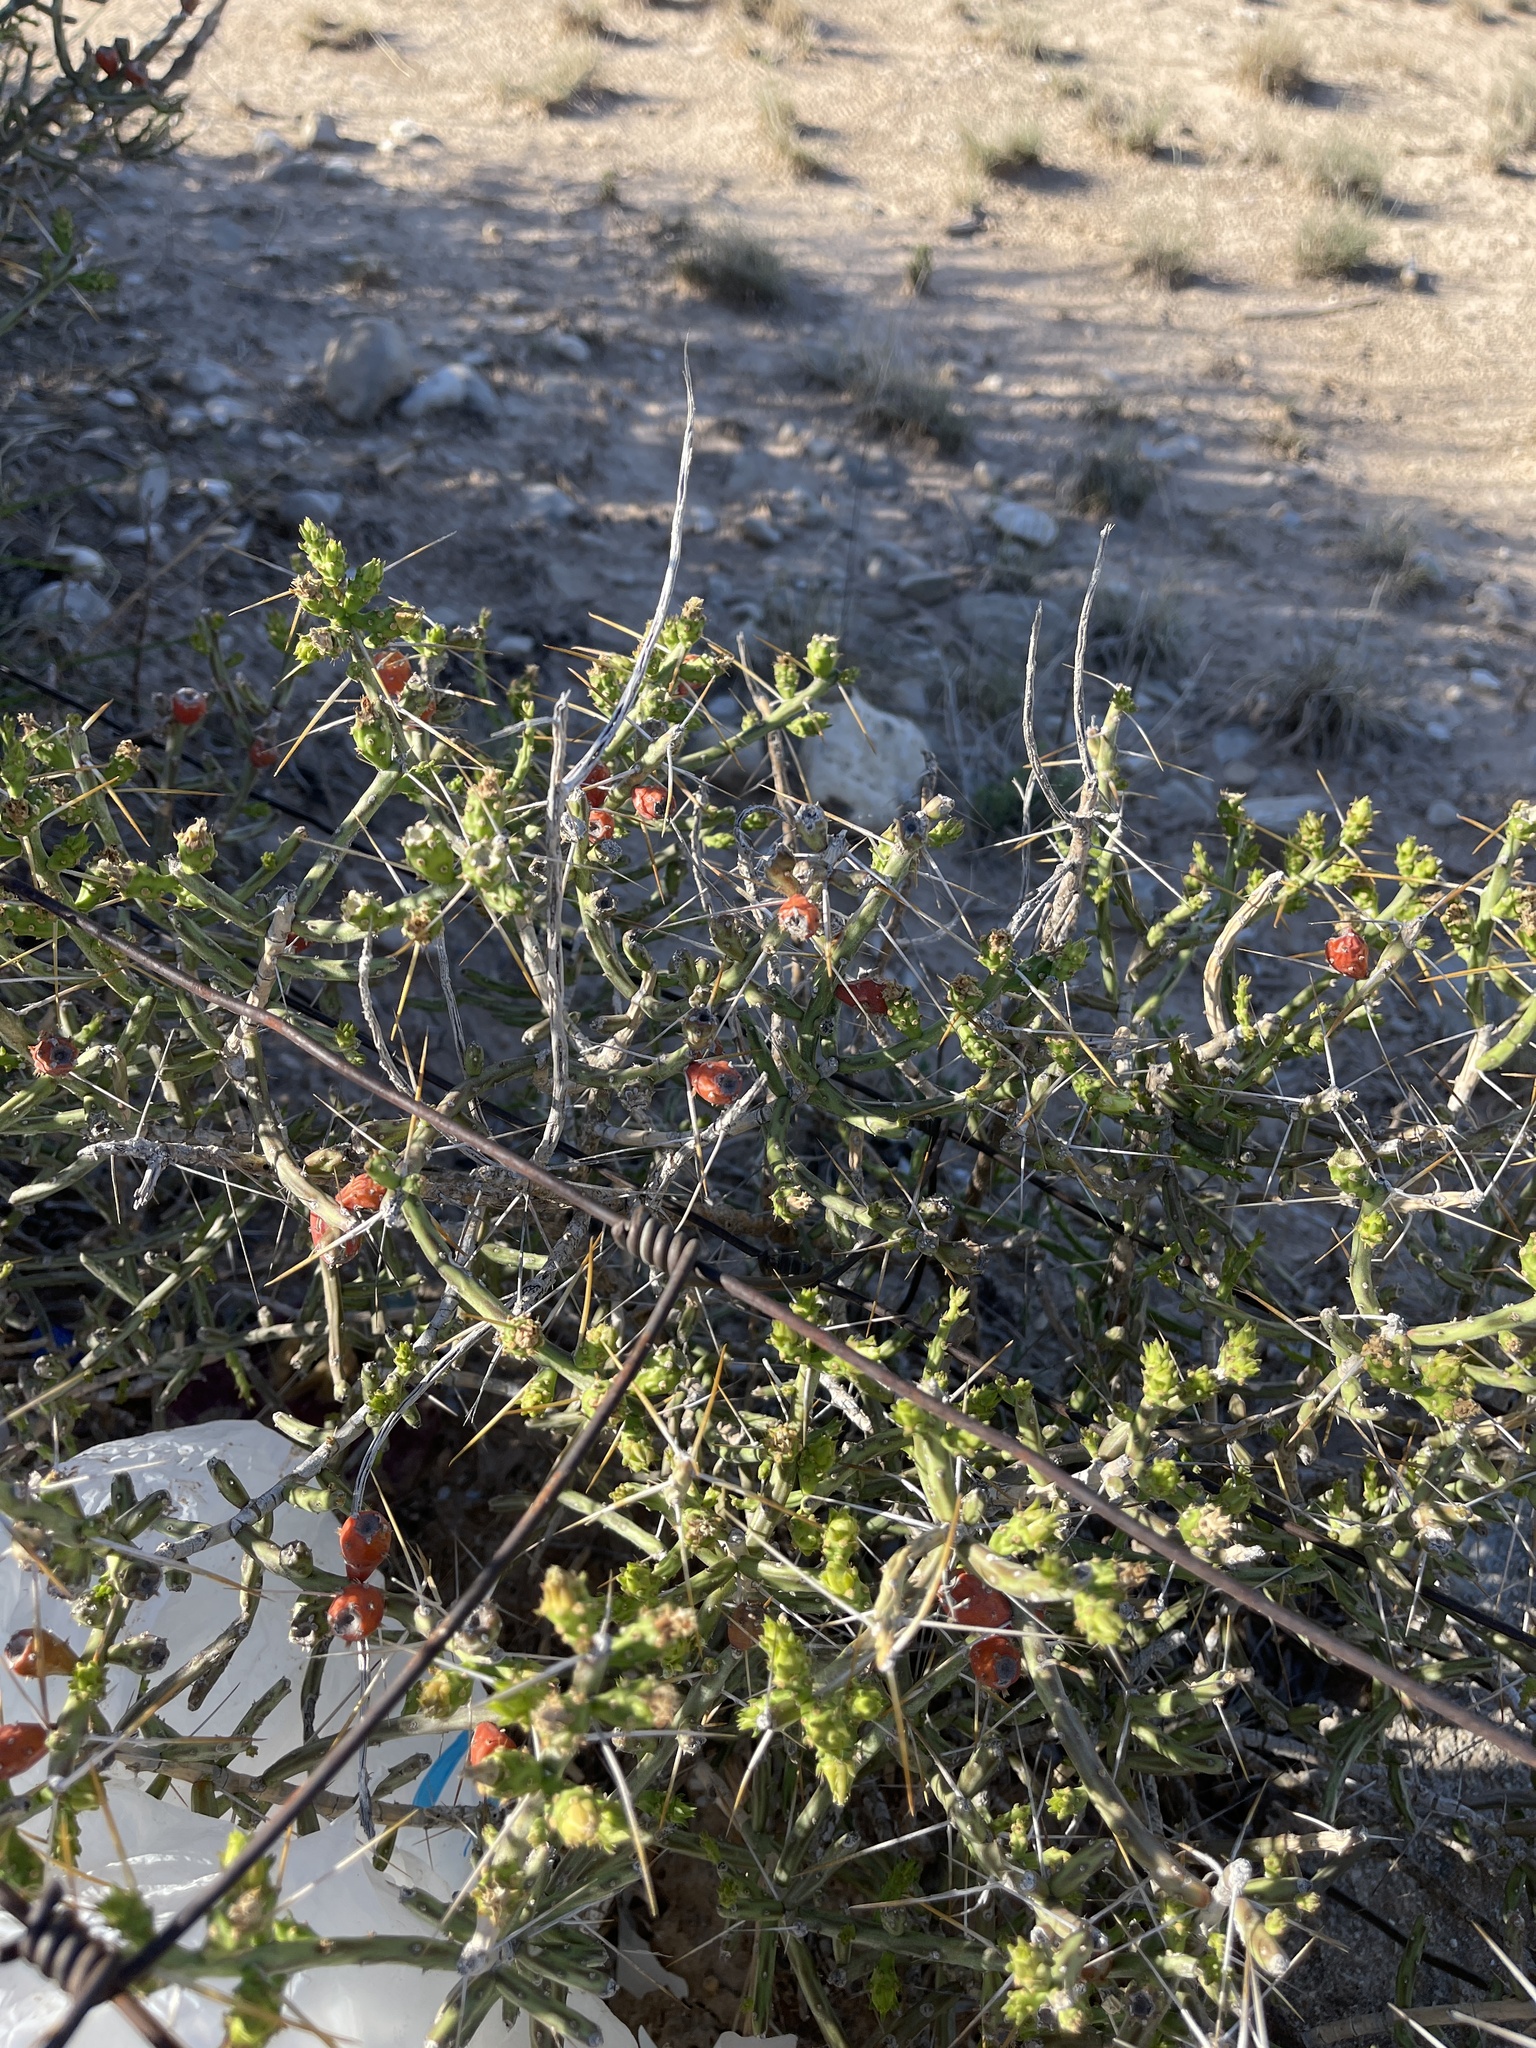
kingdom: Plantae
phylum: Tracheophyta
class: Magnoliopsida
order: Caryophyllales
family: Cactaceae
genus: Cylindropuntia
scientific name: Cylindropuntia leptocaulis
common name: Christmas cactus
